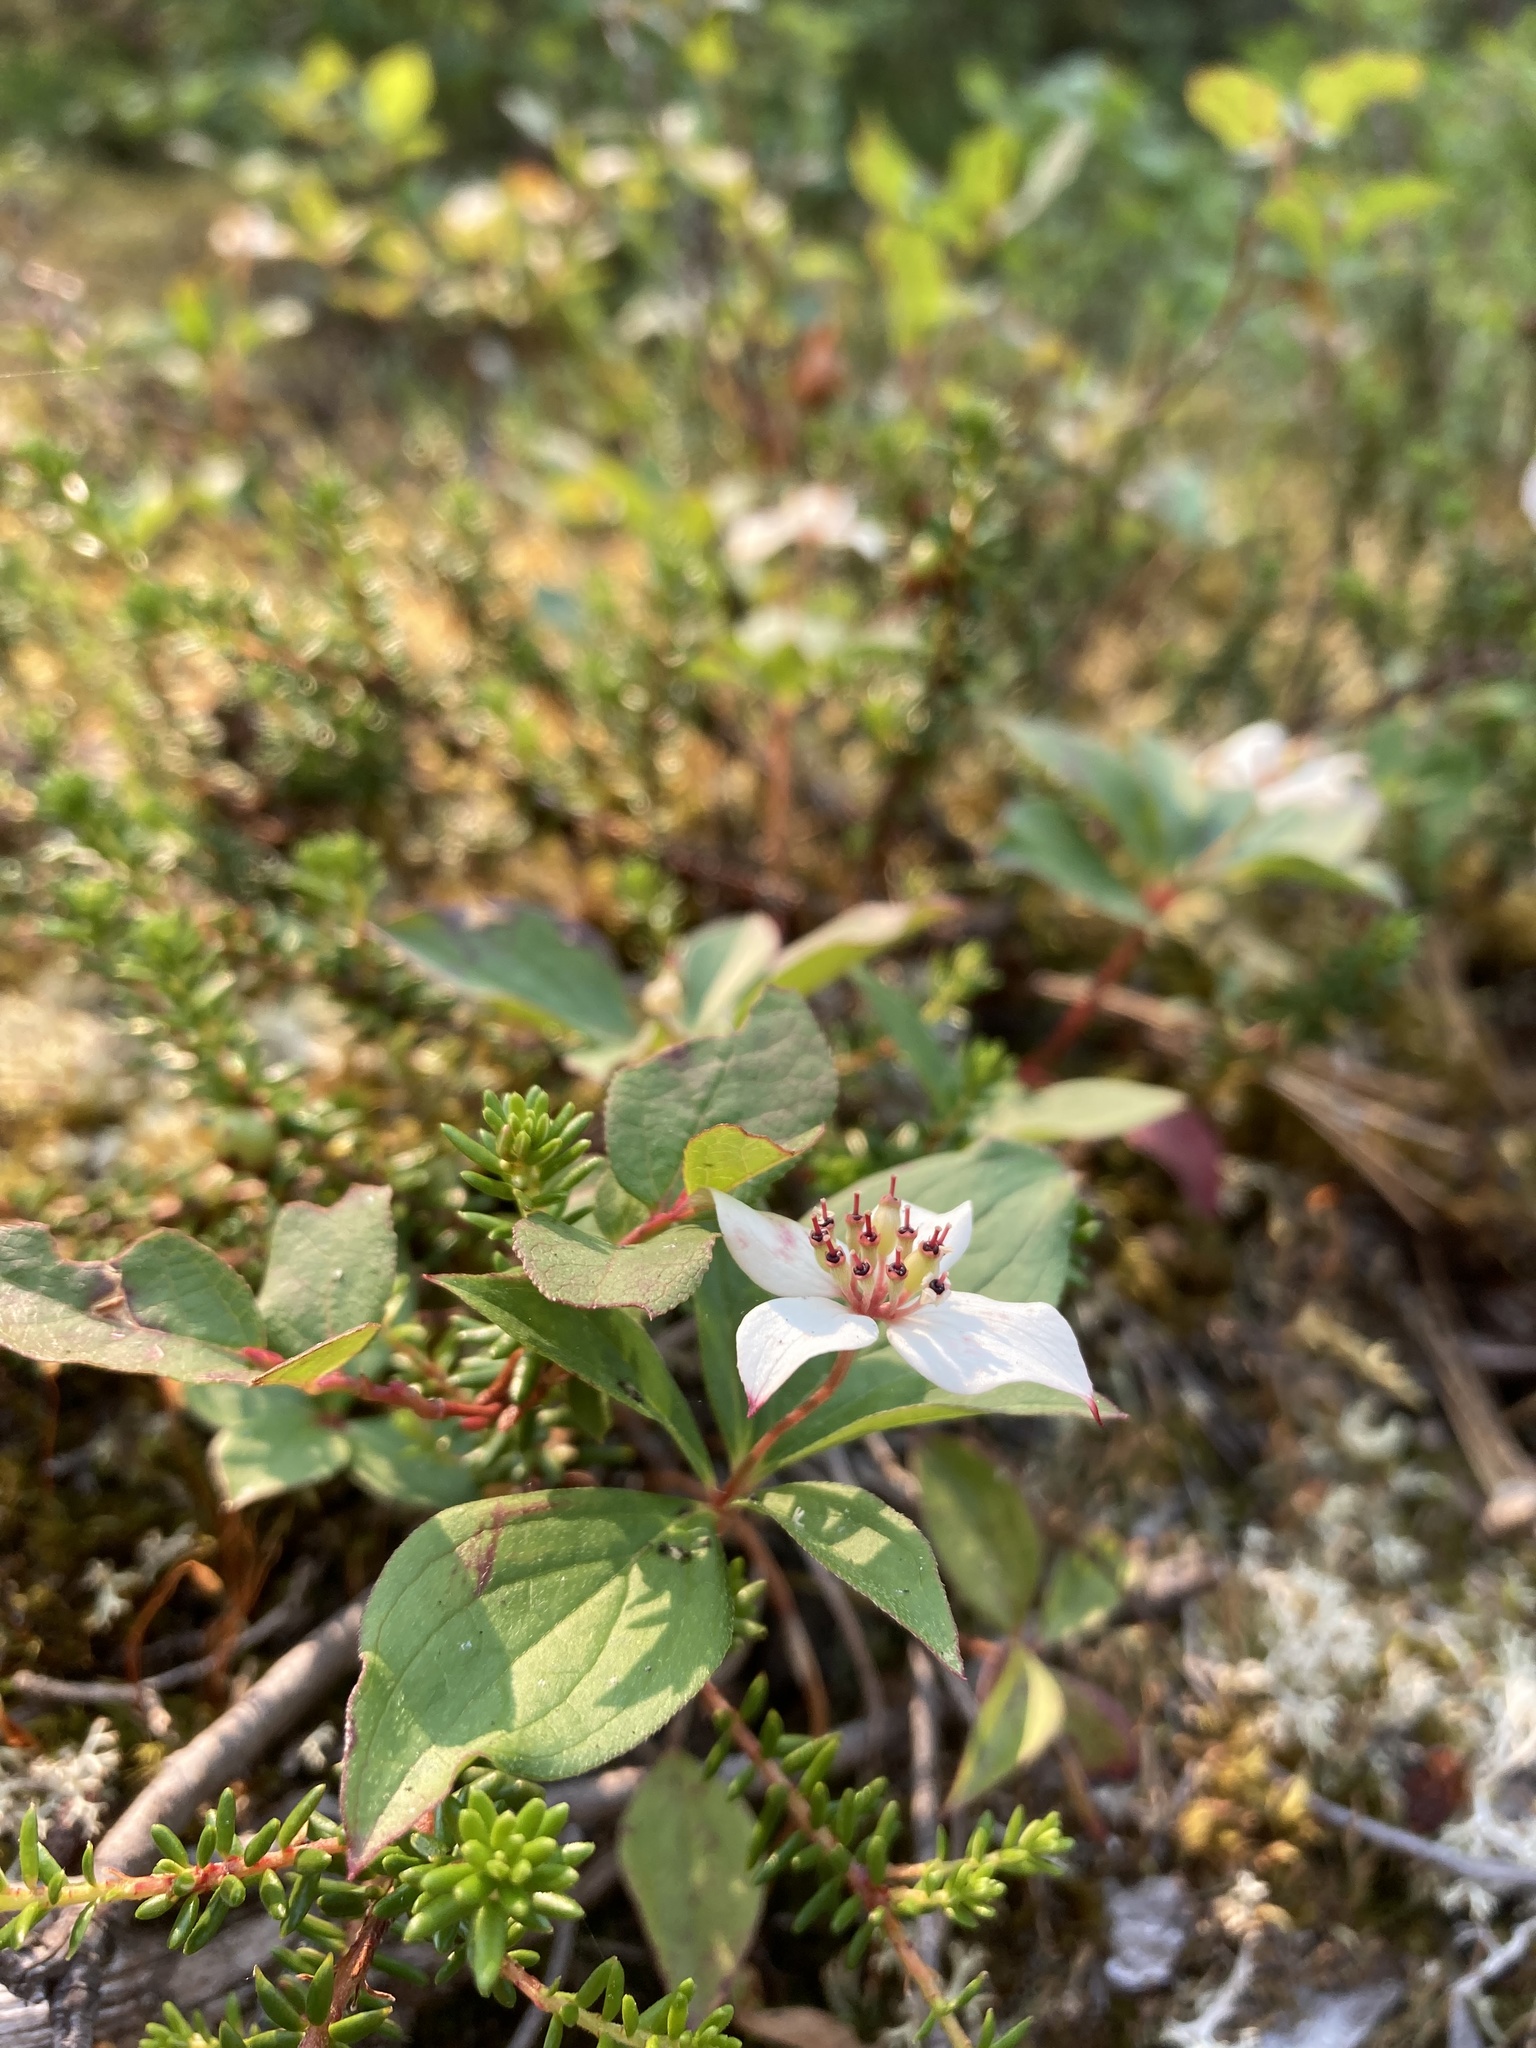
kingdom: Plantae
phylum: Tracheophyta
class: Magnoliopsida
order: Cornales
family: Cornaceae
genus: Cornus
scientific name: Cornus canadensis
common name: Creeping dogwood
